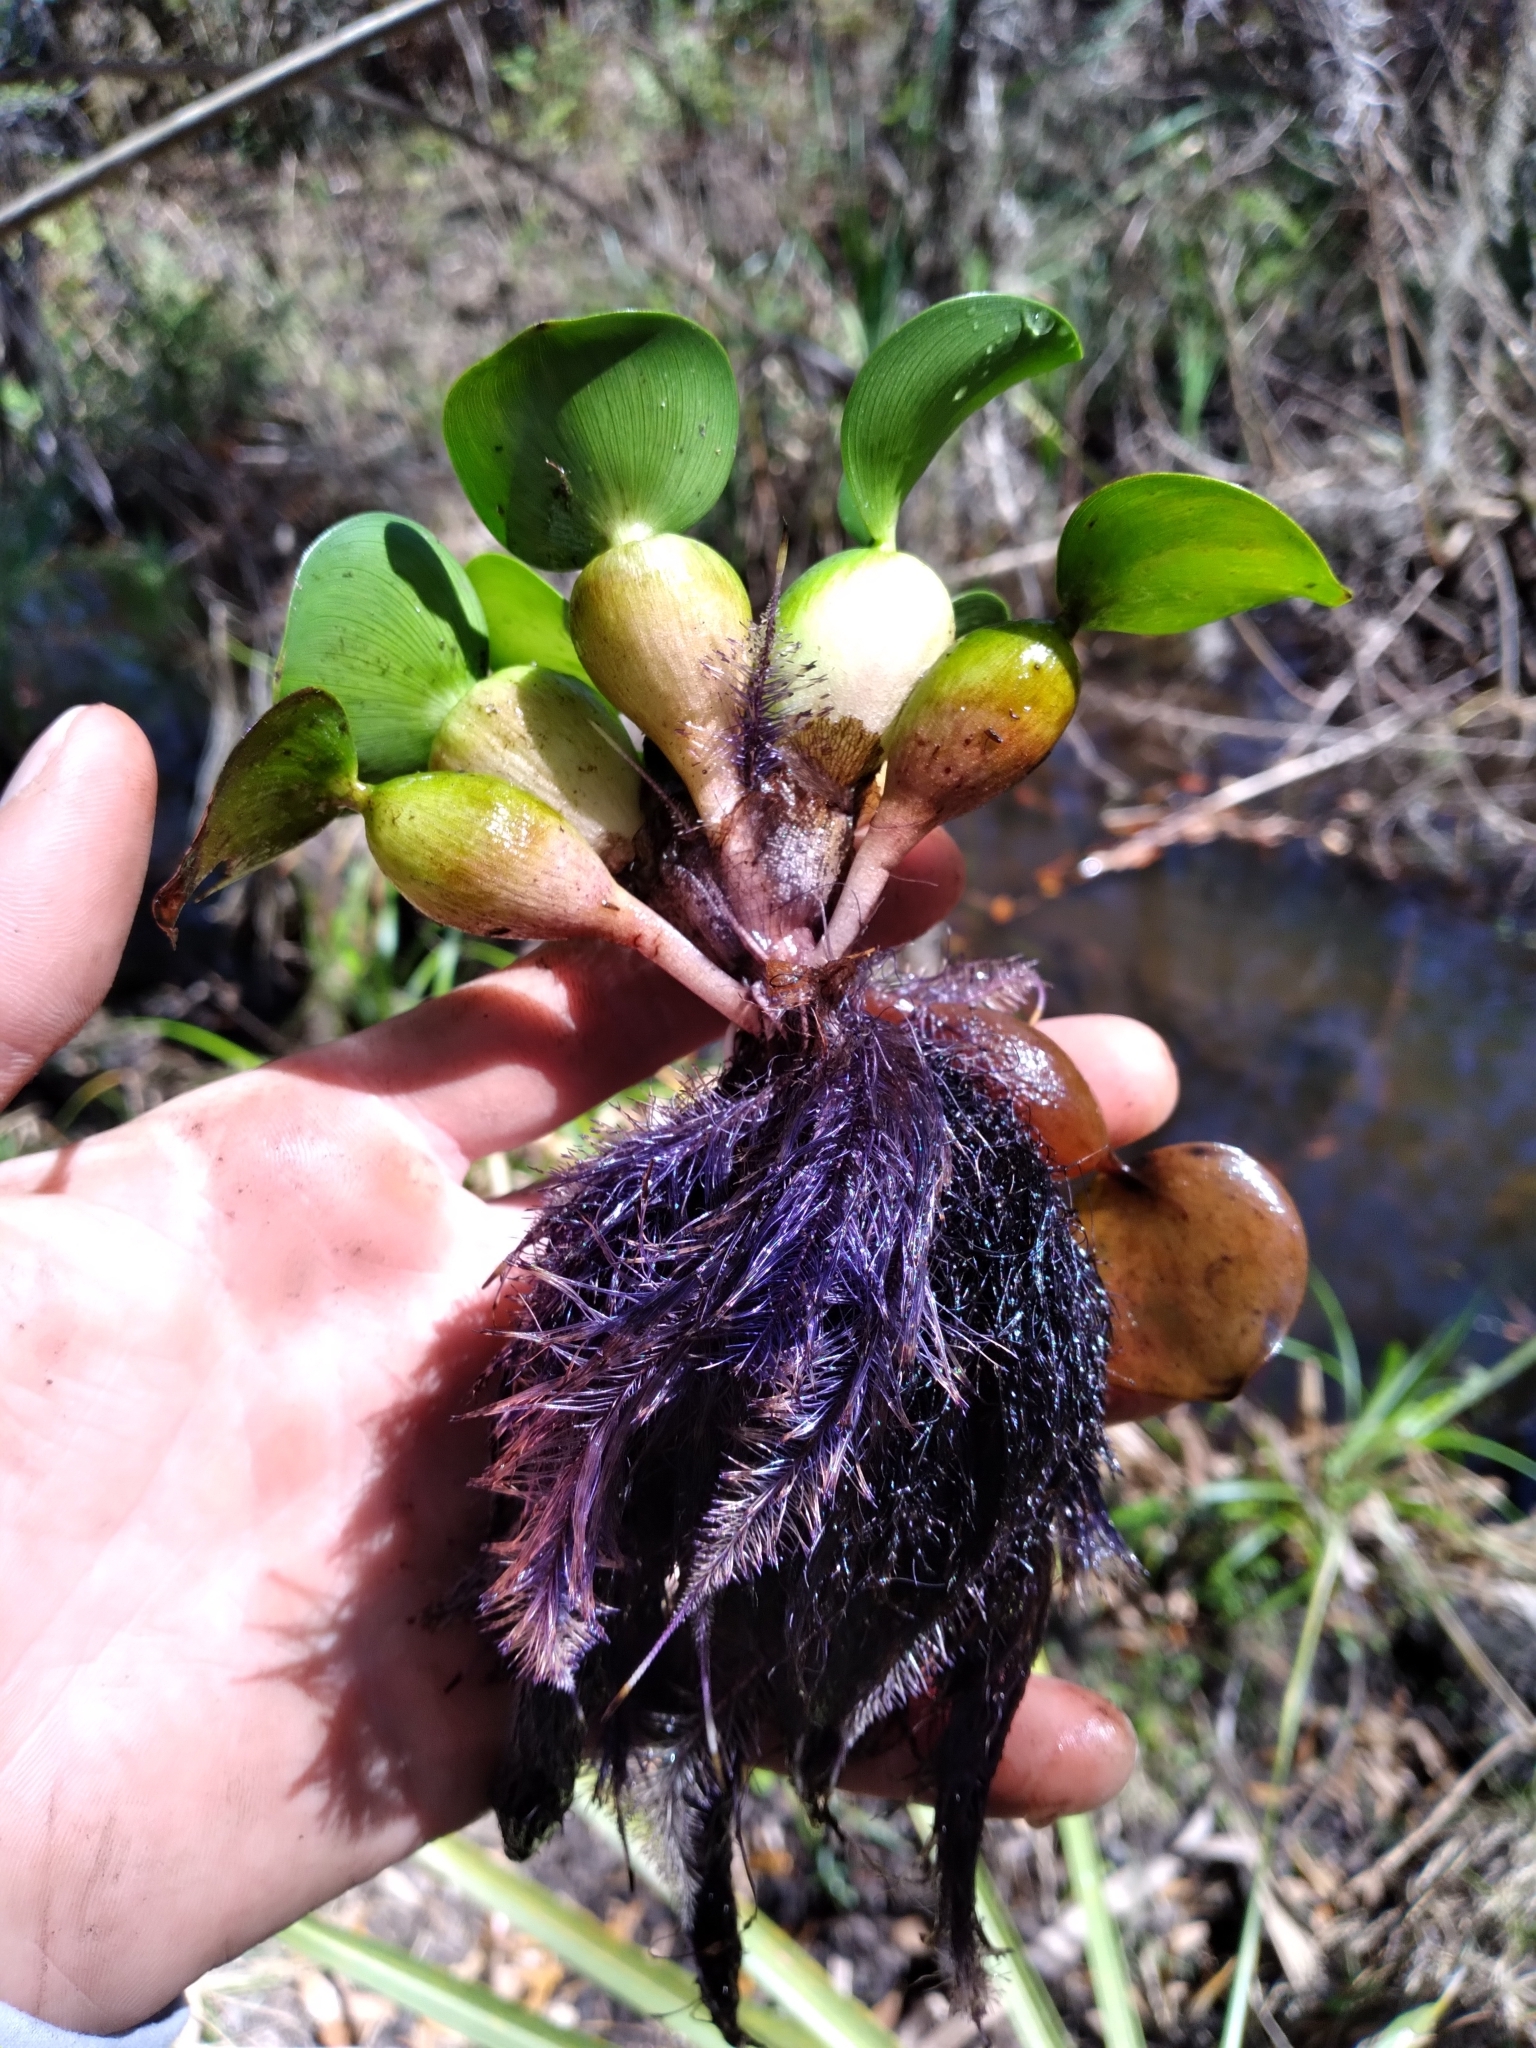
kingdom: Plantae
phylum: Tracheophyta
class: Liliopsida
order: Commelinales
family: Pontederiaceae
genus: Pontederia
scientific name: Pontederia crassipes
